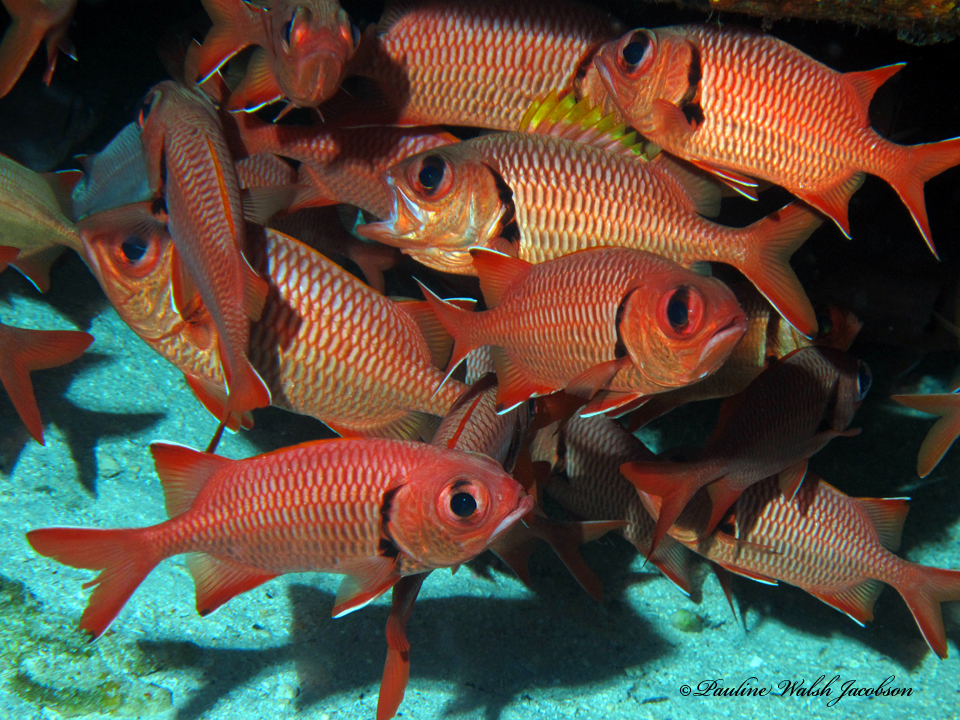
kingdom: Animalia
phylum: Chordata
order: Beryciformes
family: Holocentridae
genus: Myripristis
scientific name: Myripristis berndti
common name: Bigscale soldierfish
